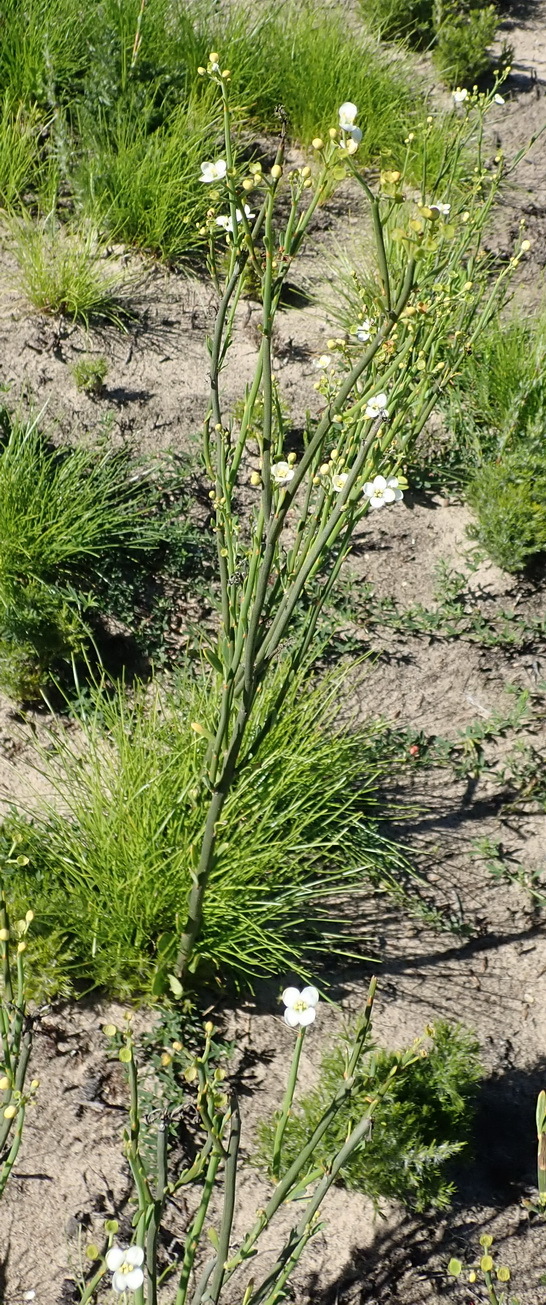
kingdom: Plantae
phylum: Tracheophyta
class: Magnoliopsida
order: Solanales
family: Montiniaceae
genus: Montinia
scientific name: Montinia caryophyllacea
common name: Wild clove-bush
